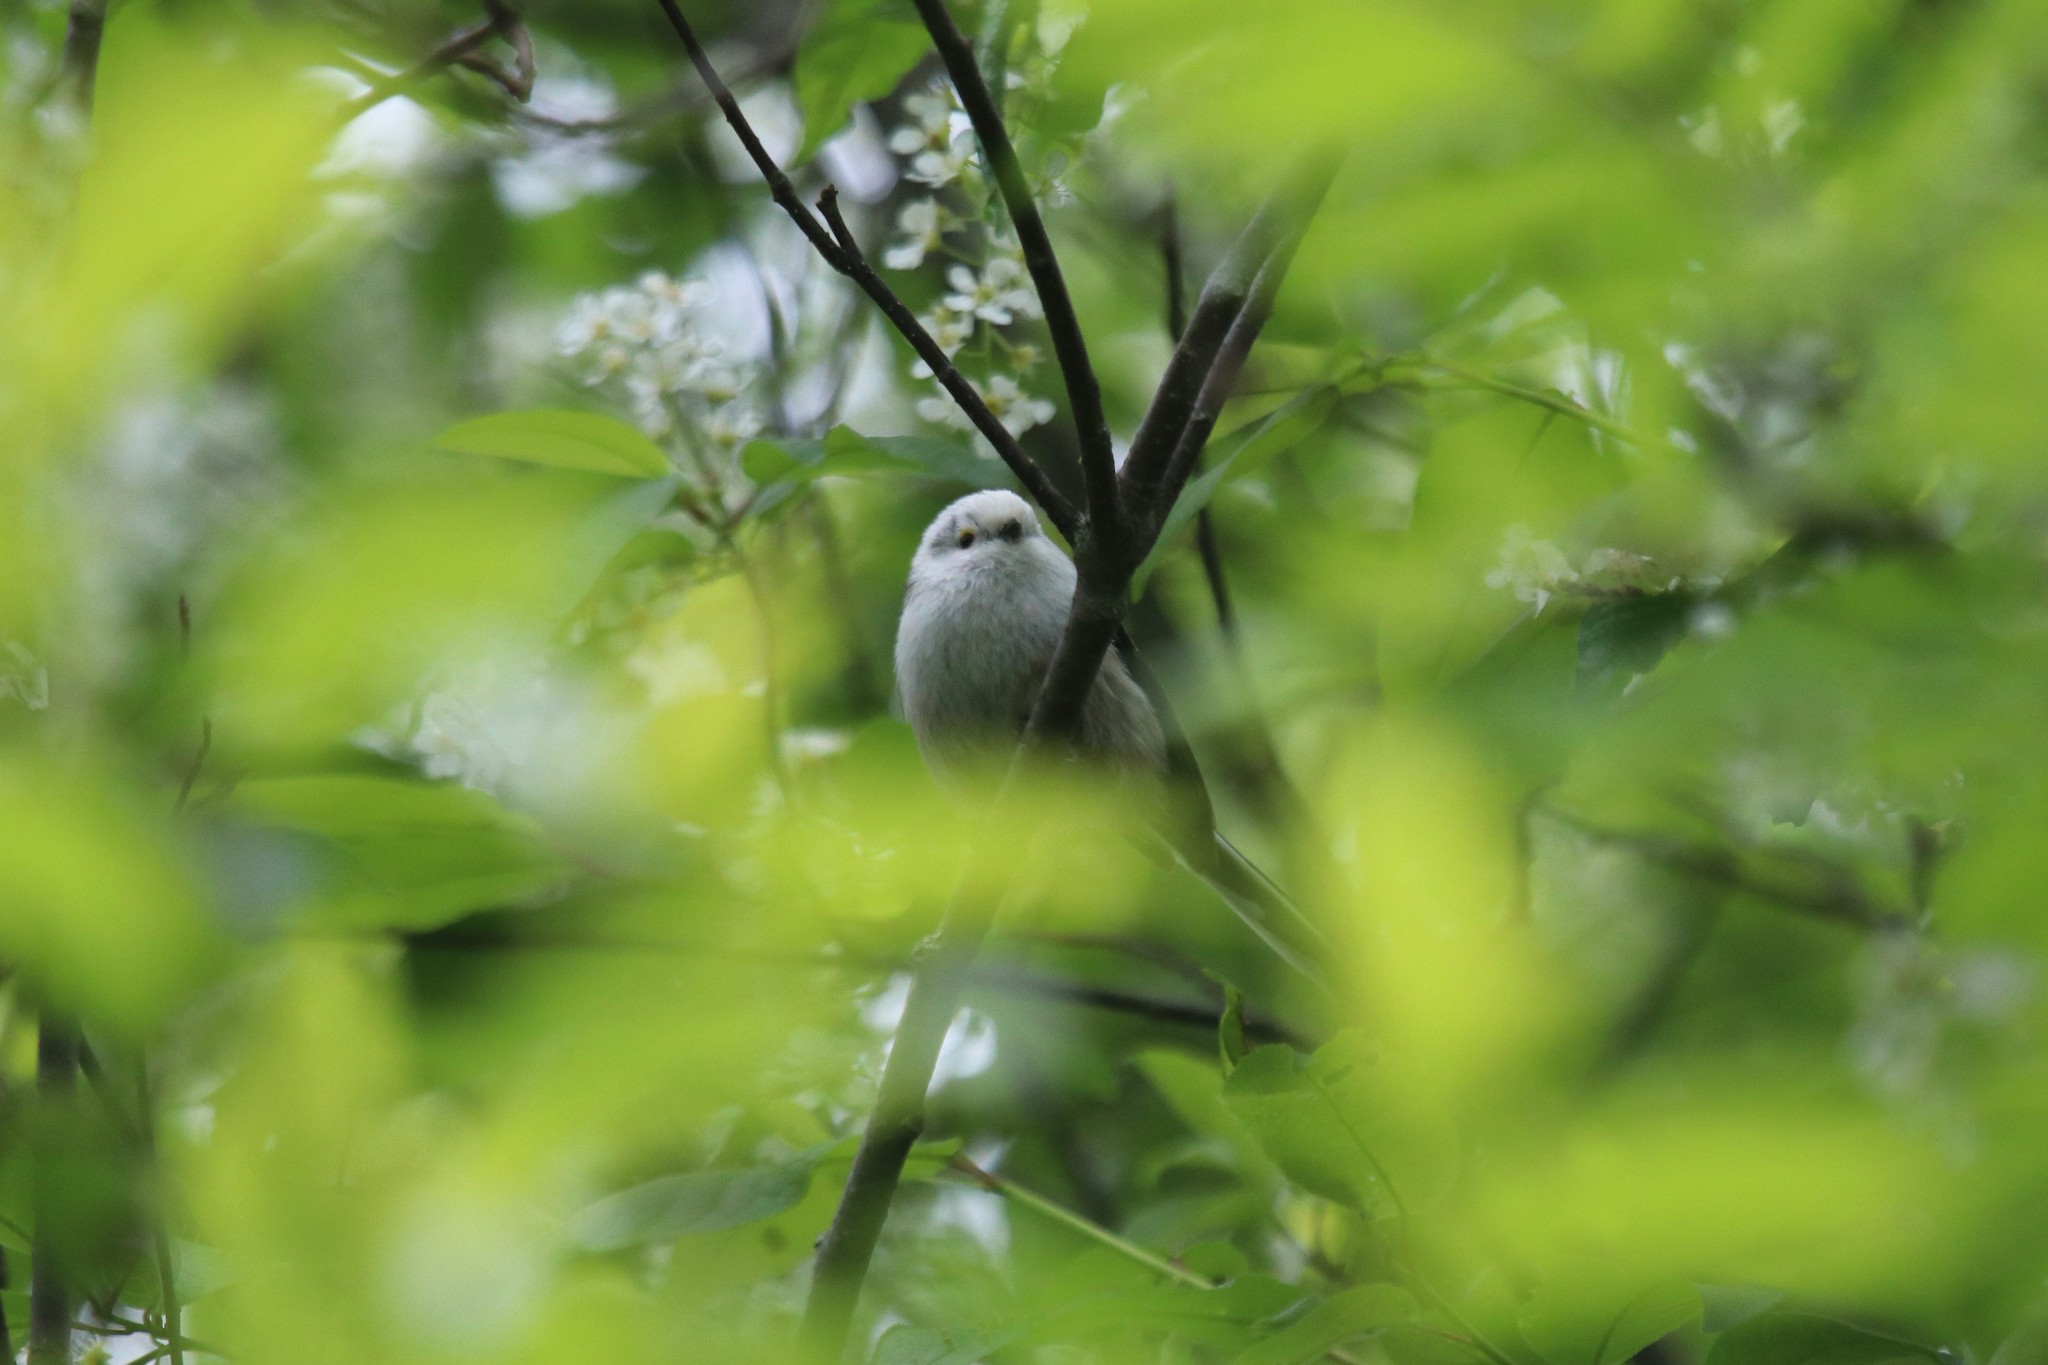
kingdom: Animalia
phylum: Chordata
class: Aves
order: Passeriformes
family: Aegithalidae
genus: Aegithalos
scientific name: Aegithalos caudatus
